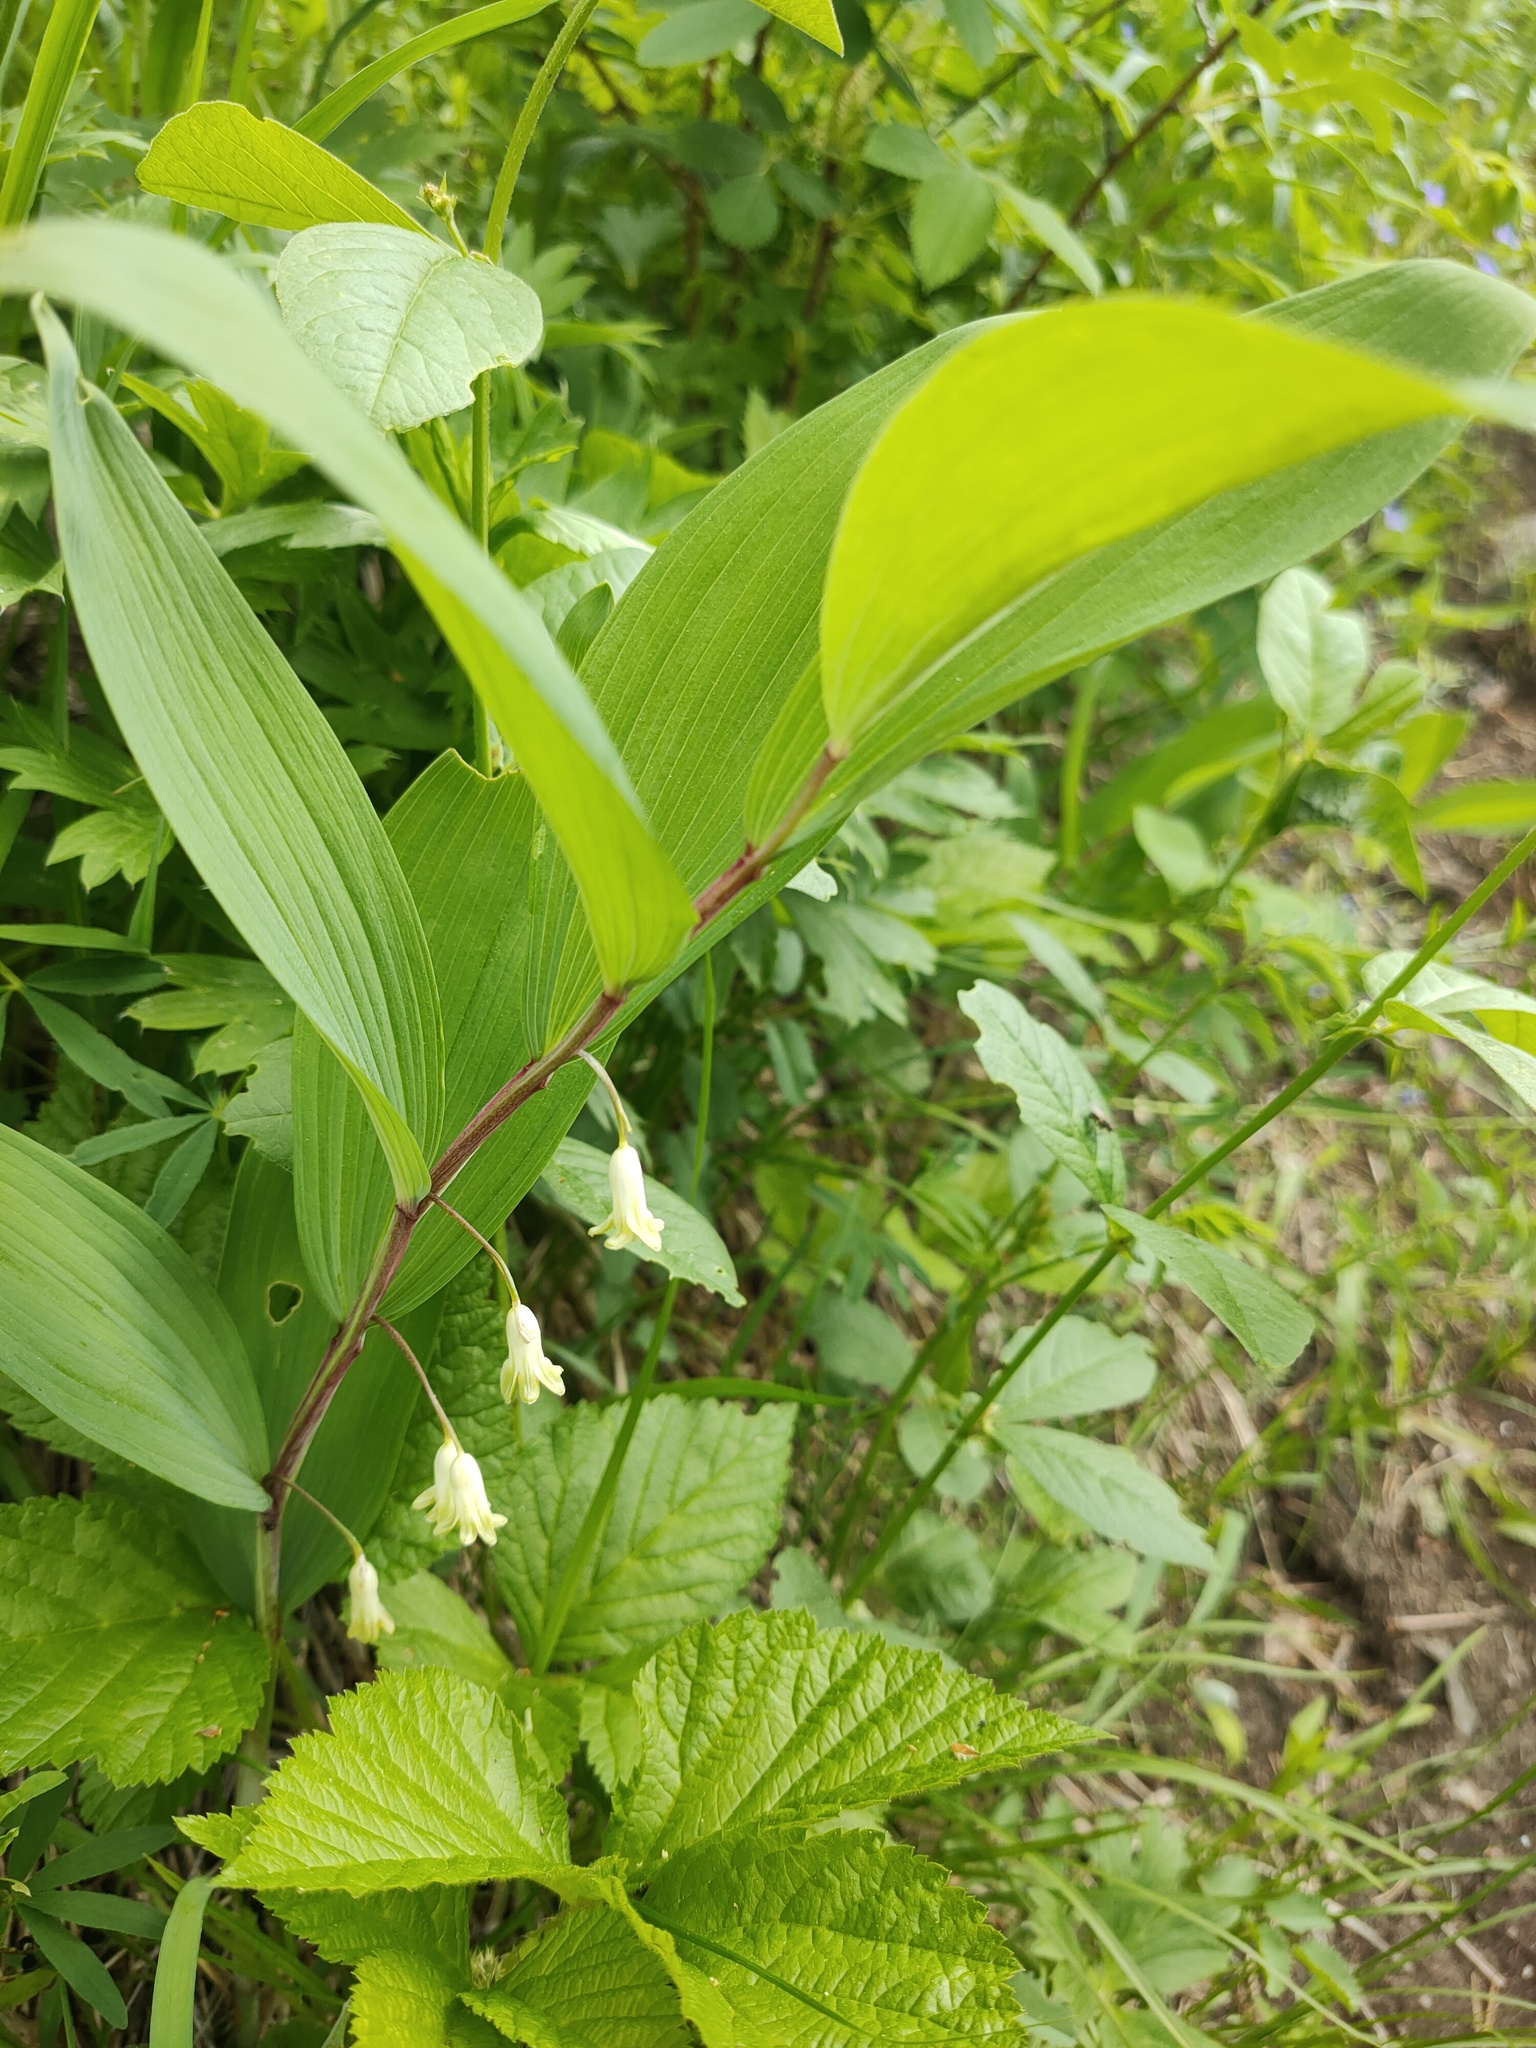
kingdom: Plantae
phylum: Tracheophyta
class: Liliopsida
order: Asparagales
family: Asparagaceae
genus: Polygonatum
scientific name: Polygonatum odoratum
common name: Angular solomon's-seal
